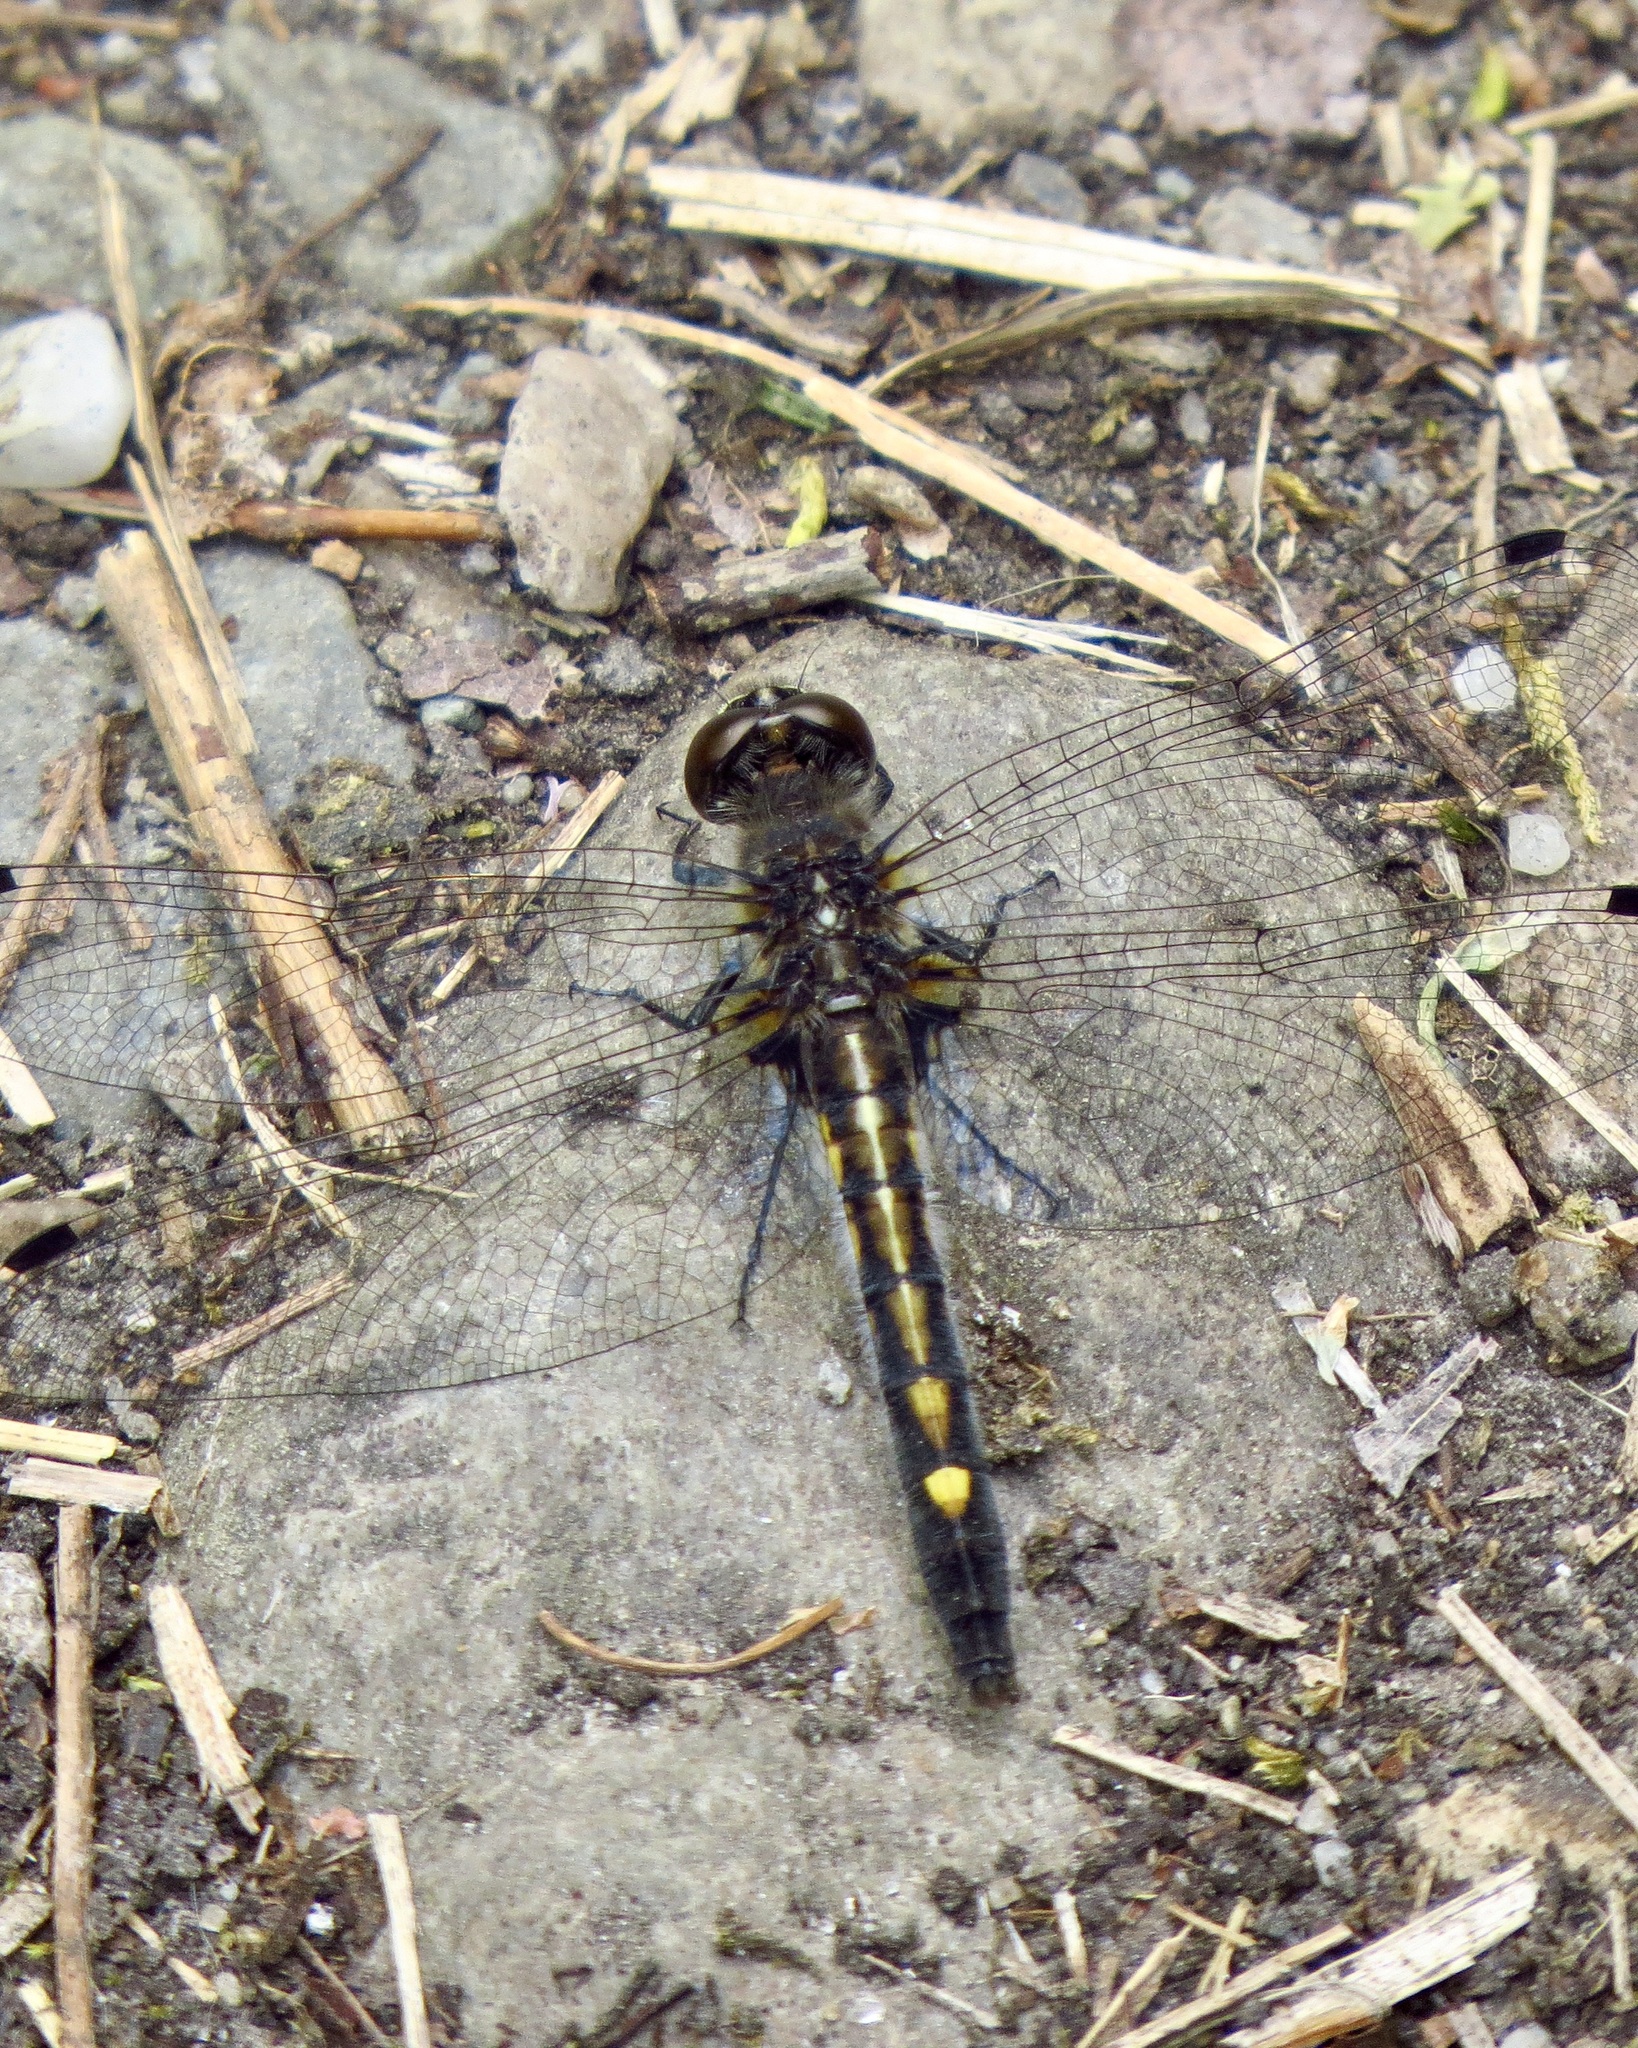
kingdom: Animalia
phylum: Arthropoda
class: Insecta
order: Odonata
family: Libellulidae
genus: Leucorrhinia
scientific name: Leucorrhinia intacta
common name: Dot-tailed whiteface
